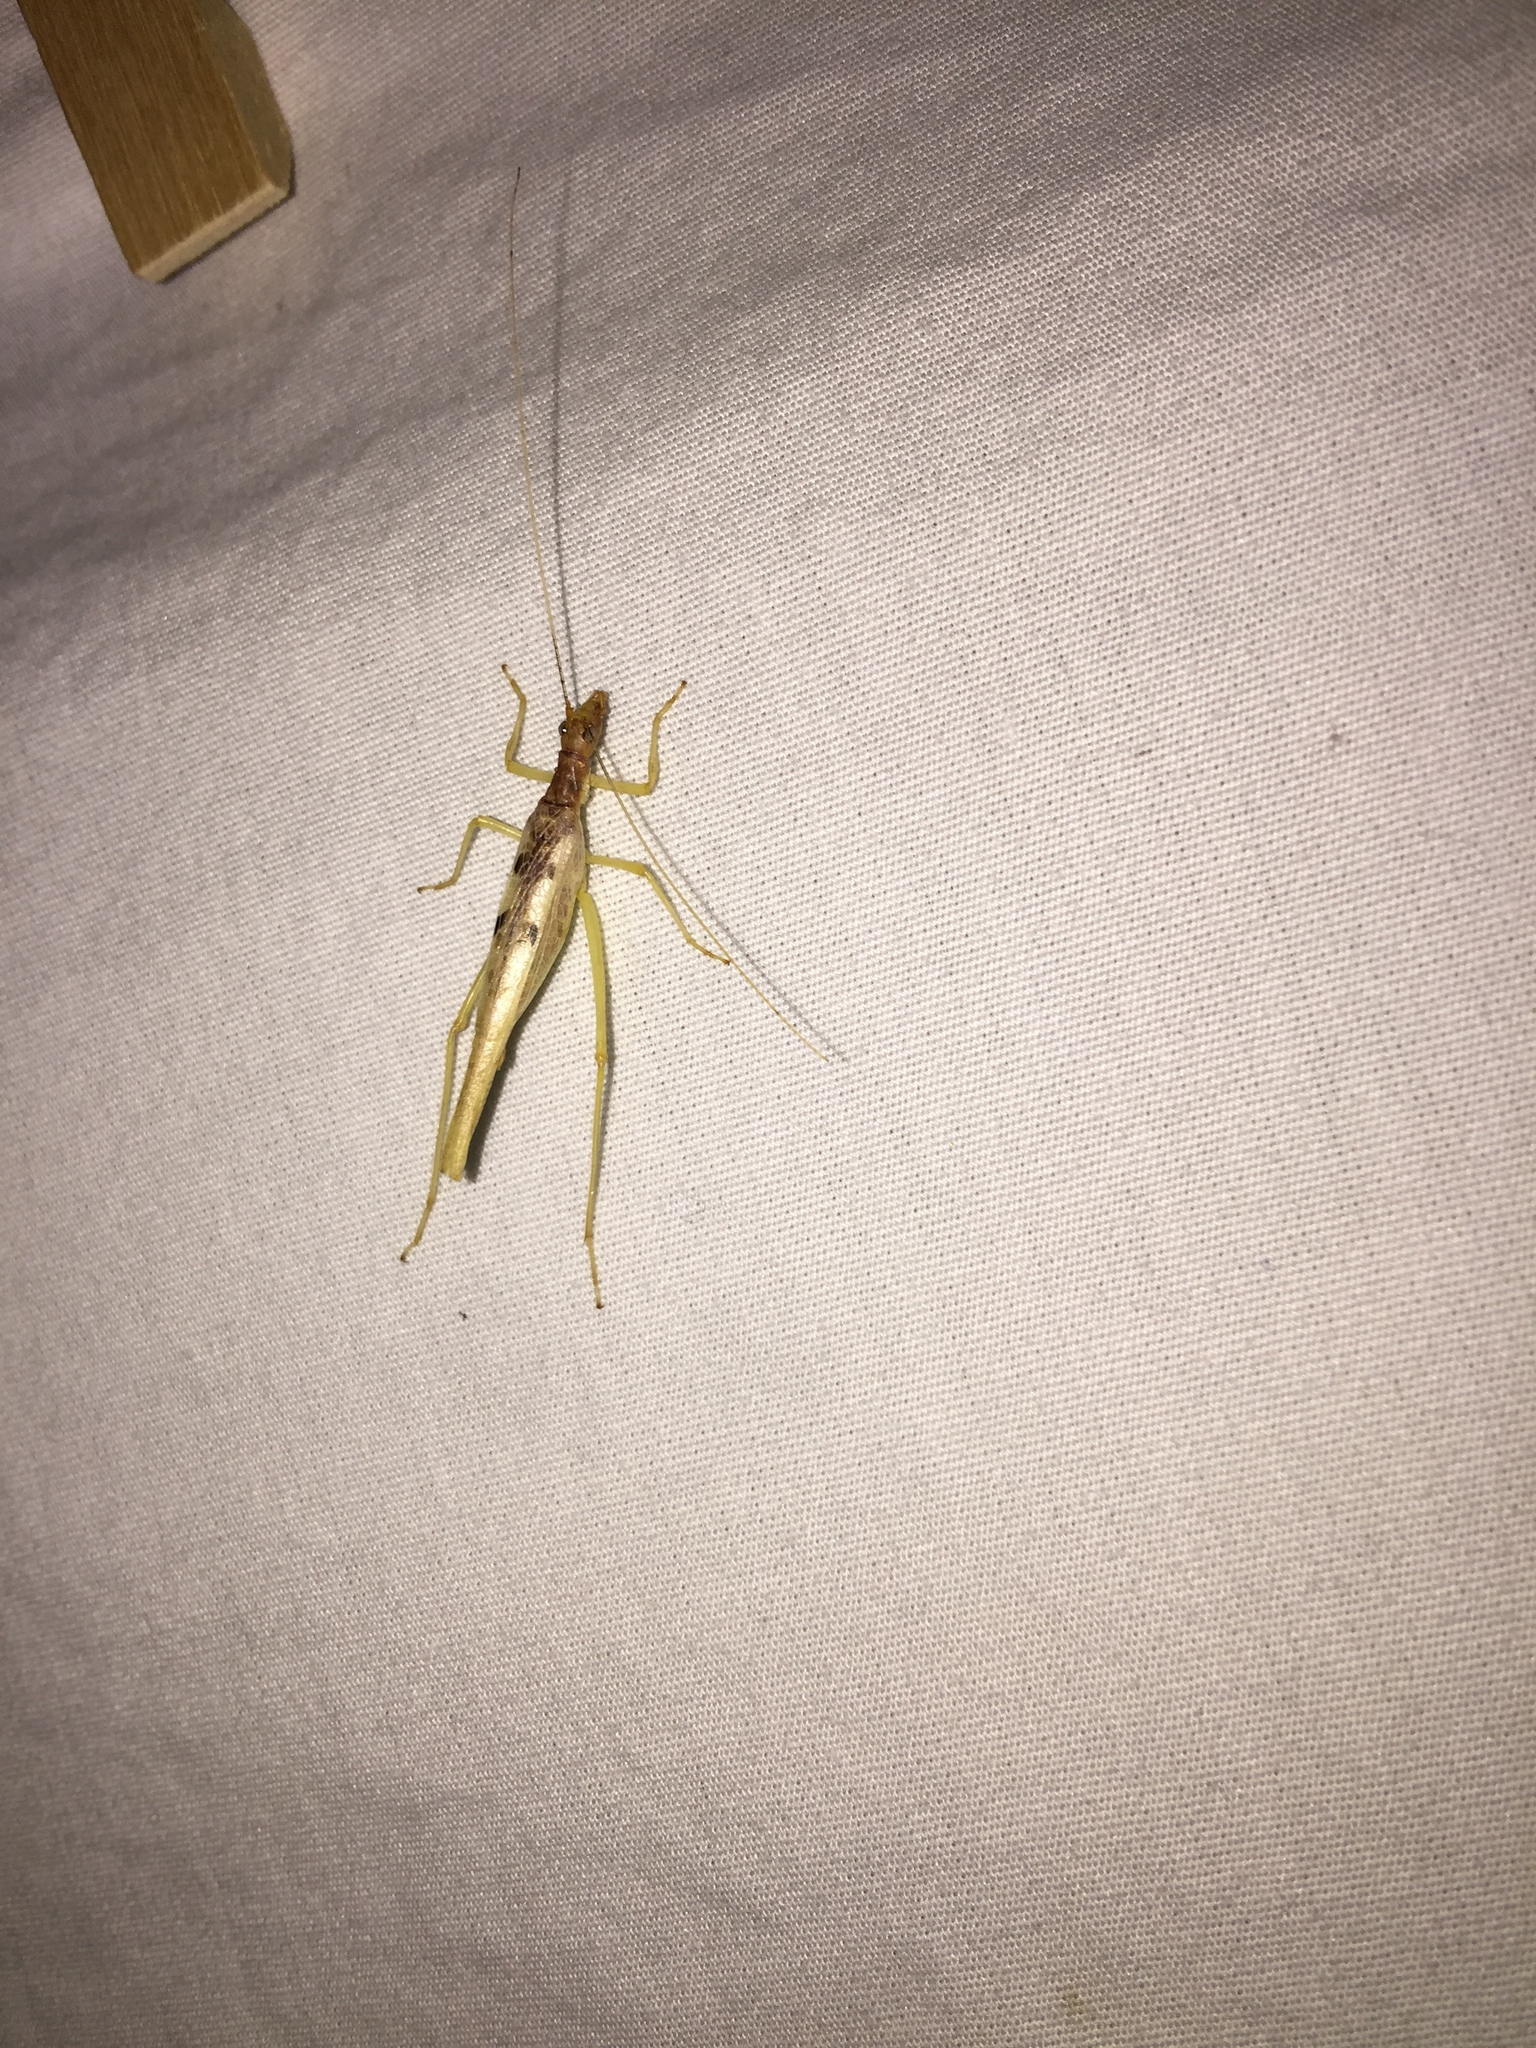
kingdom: Animalia
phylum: Arthropoda
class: Insecta
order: Orthoptera
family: Gryllidae
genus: Neoxabea
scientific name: Neoxabea bipunctata
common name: Two-spotted tree cricket
